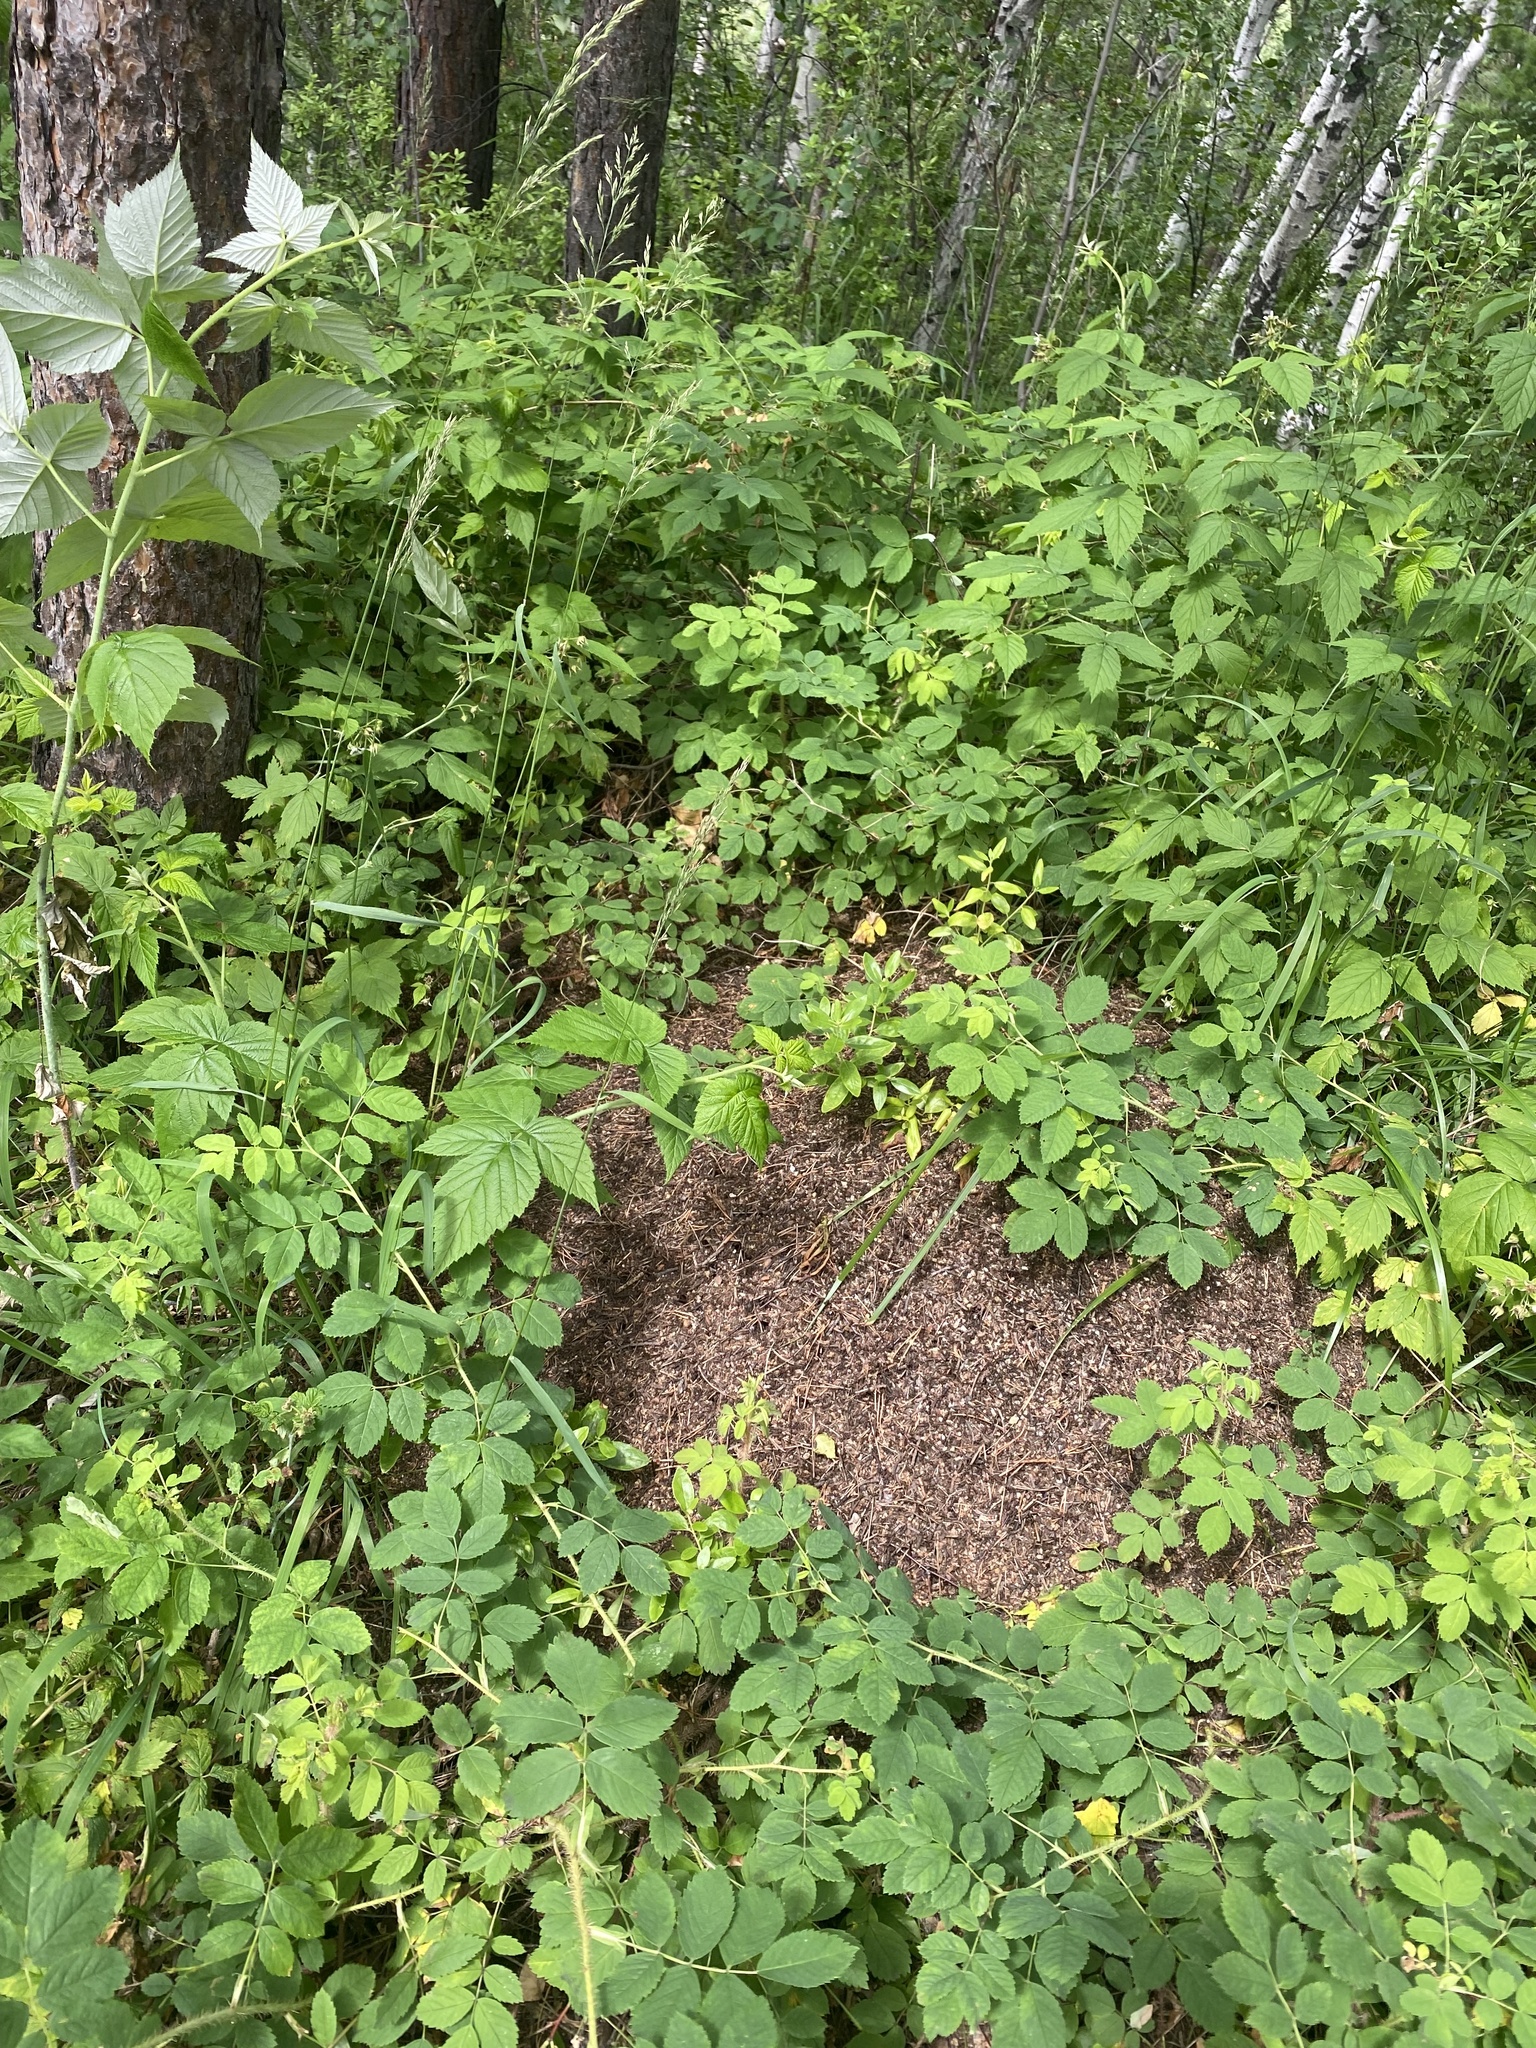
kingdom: Animalia
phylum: Arthropoda
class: Insecta
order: Hymenoptera
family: Formicidae
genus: Formica
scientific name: Formica
